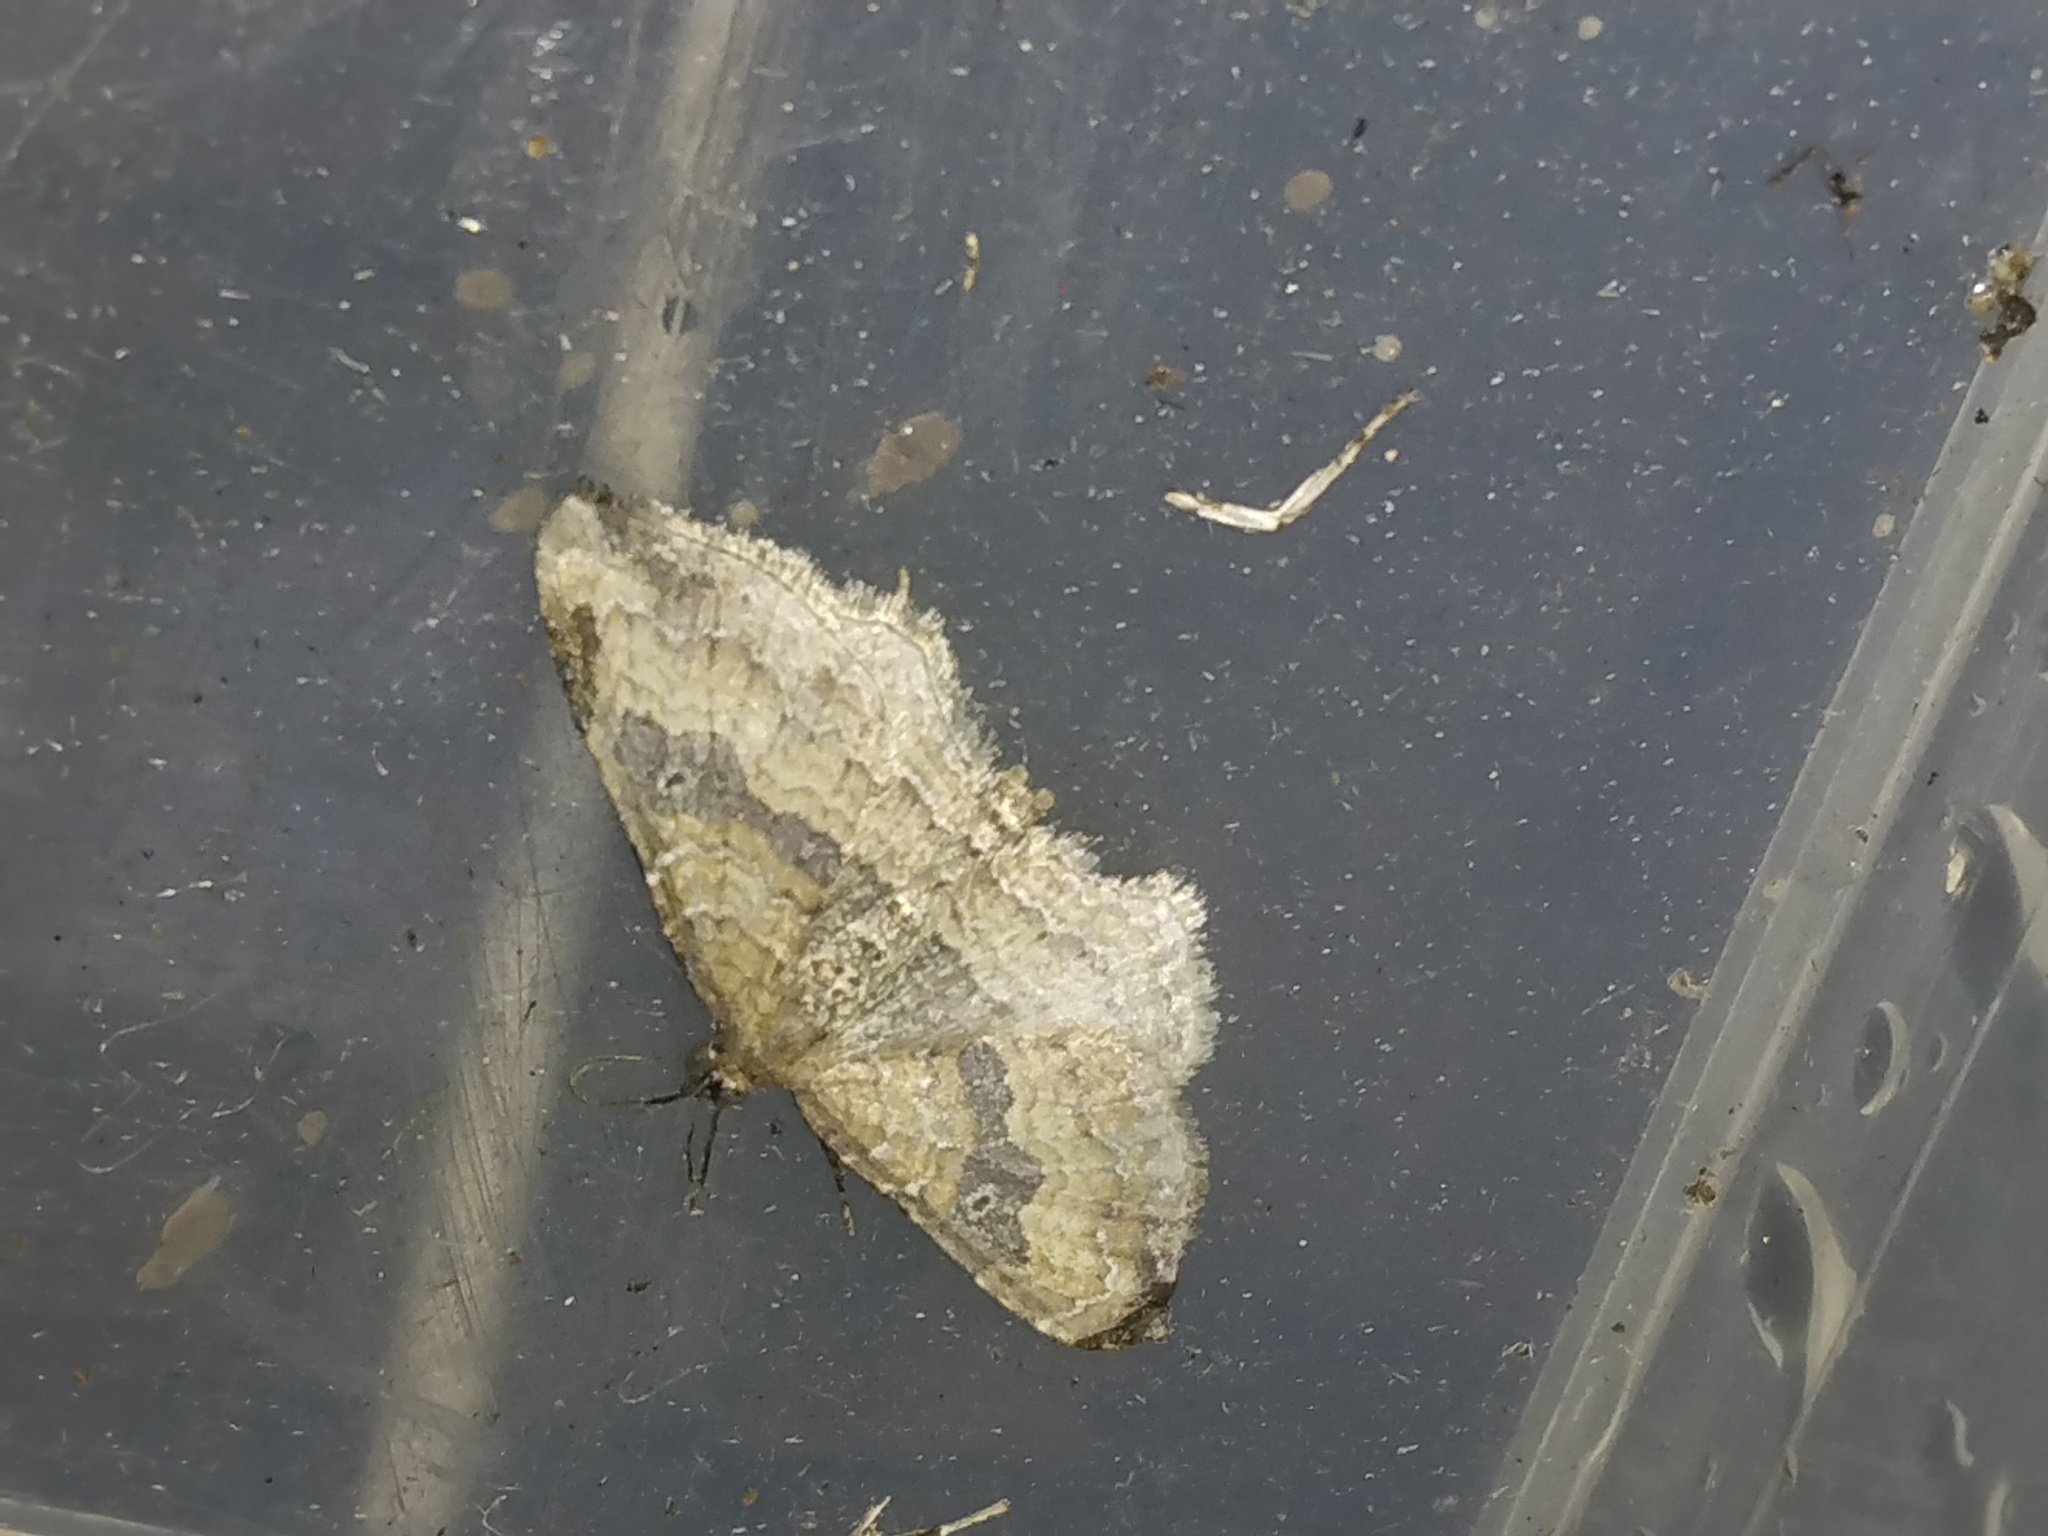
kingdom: Animalia
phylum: Arthropoda
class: Insecta
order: Lepidoptera
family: Geometridae
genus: Orthonama
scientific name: Orthonama obstipata
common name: The gem
